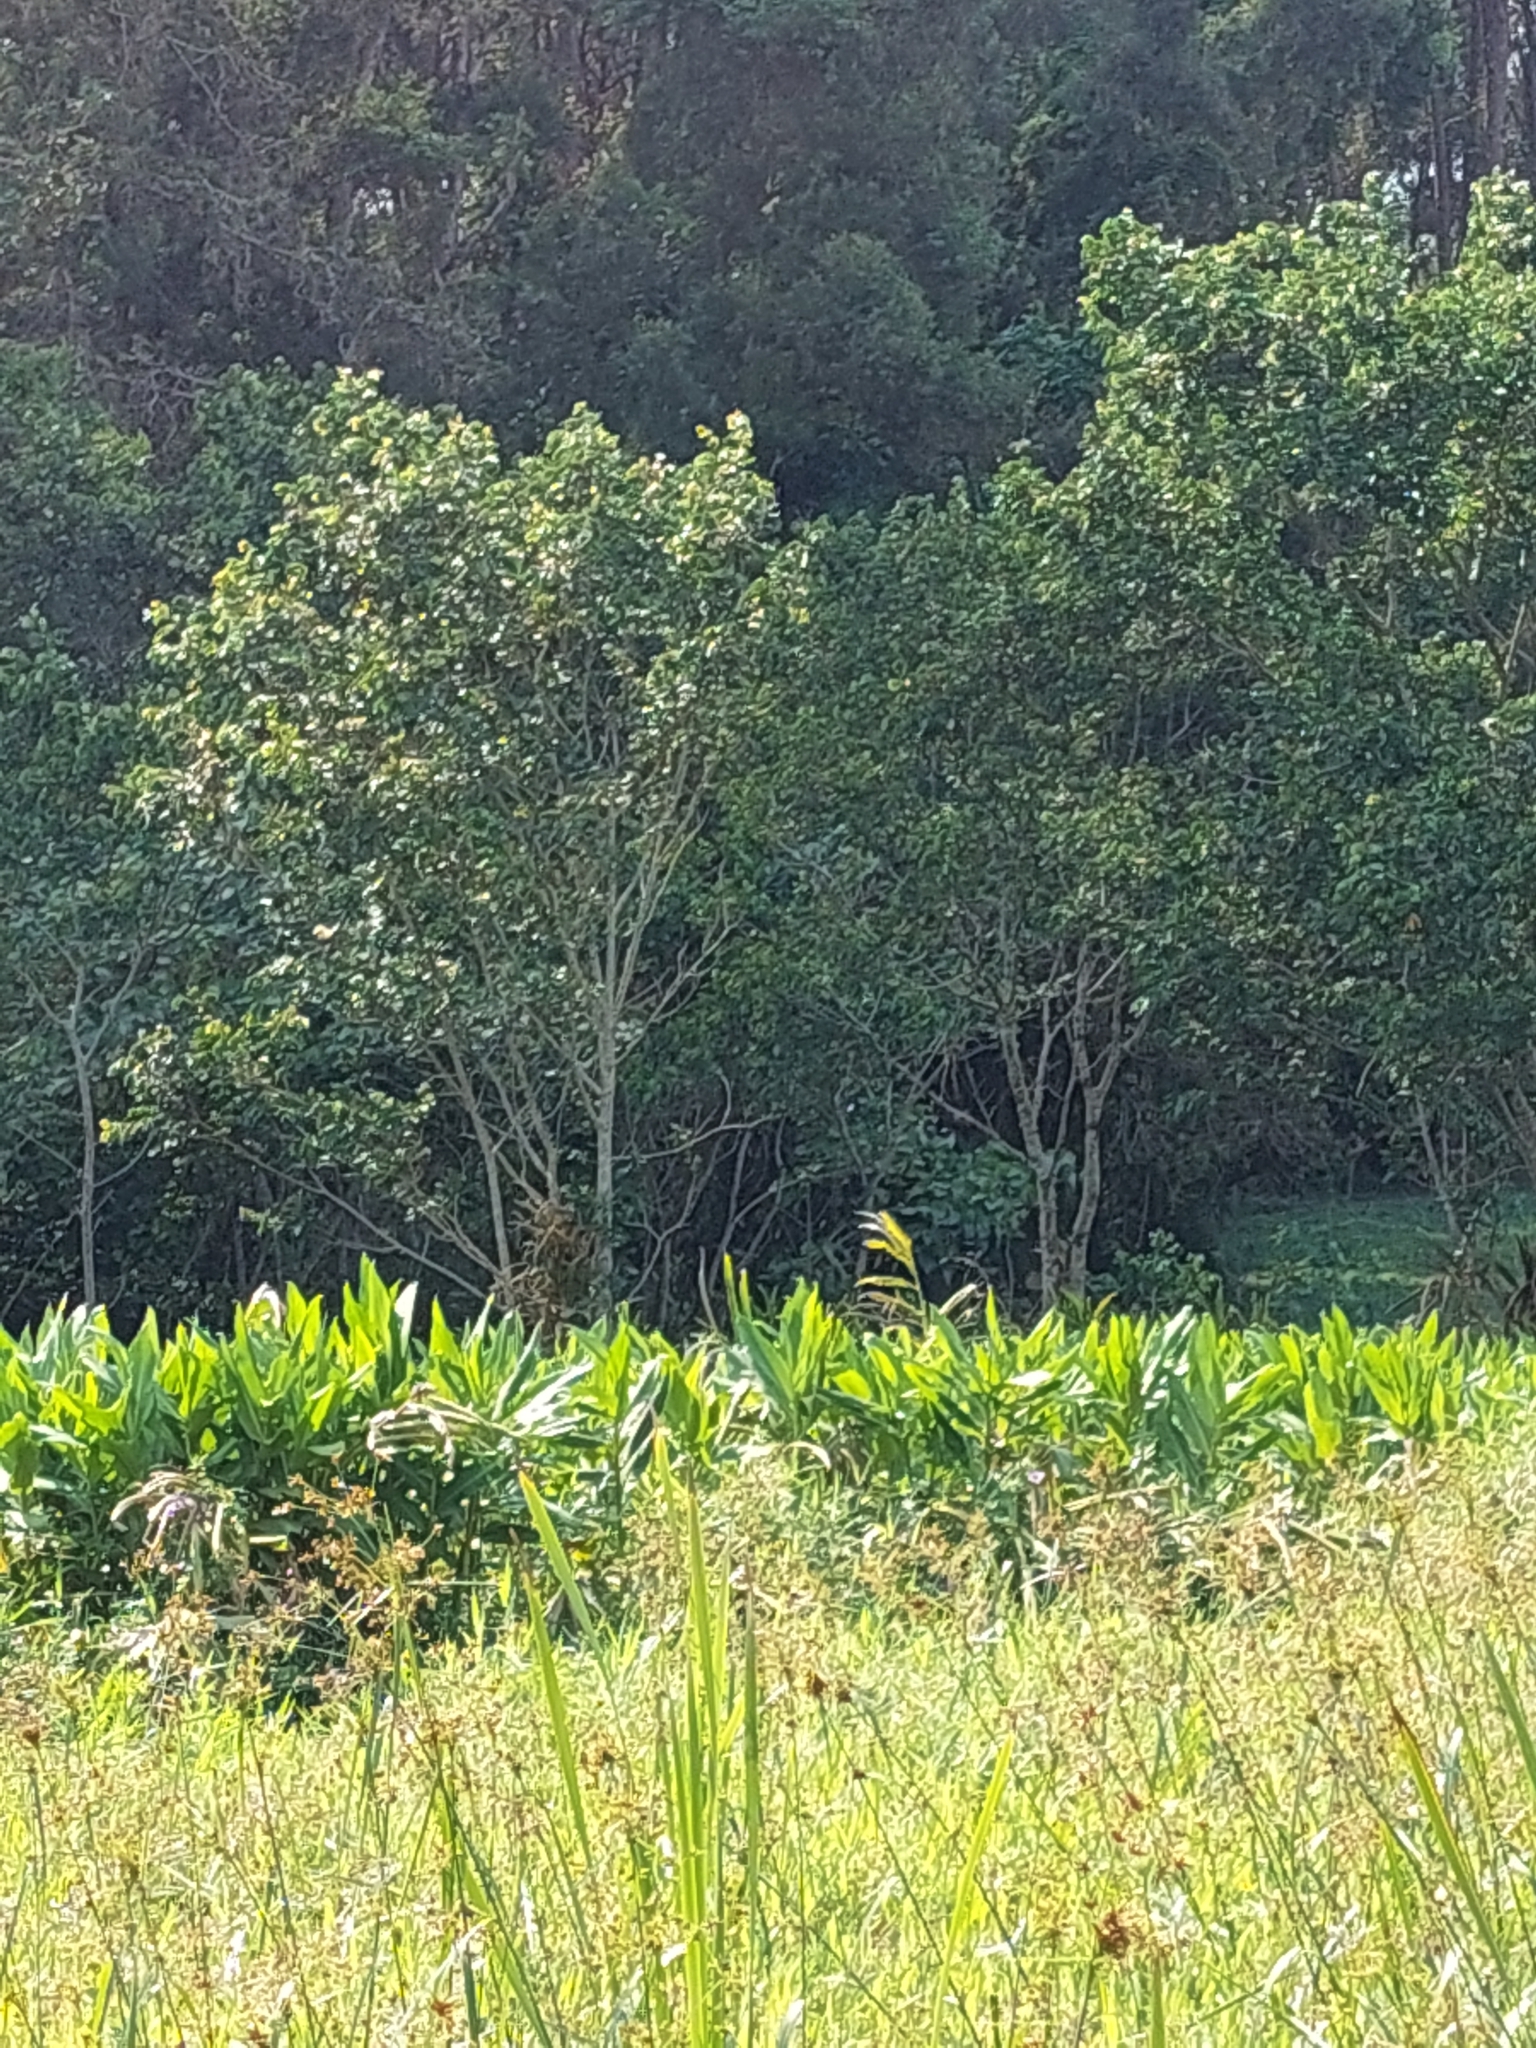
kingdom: Plantae
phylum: Tracheophyta
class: Liliopsida
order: Zingiberales
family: Zingiberaceae
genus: Hedychium
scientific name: Hedychium coronarium
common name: White garland-lily
